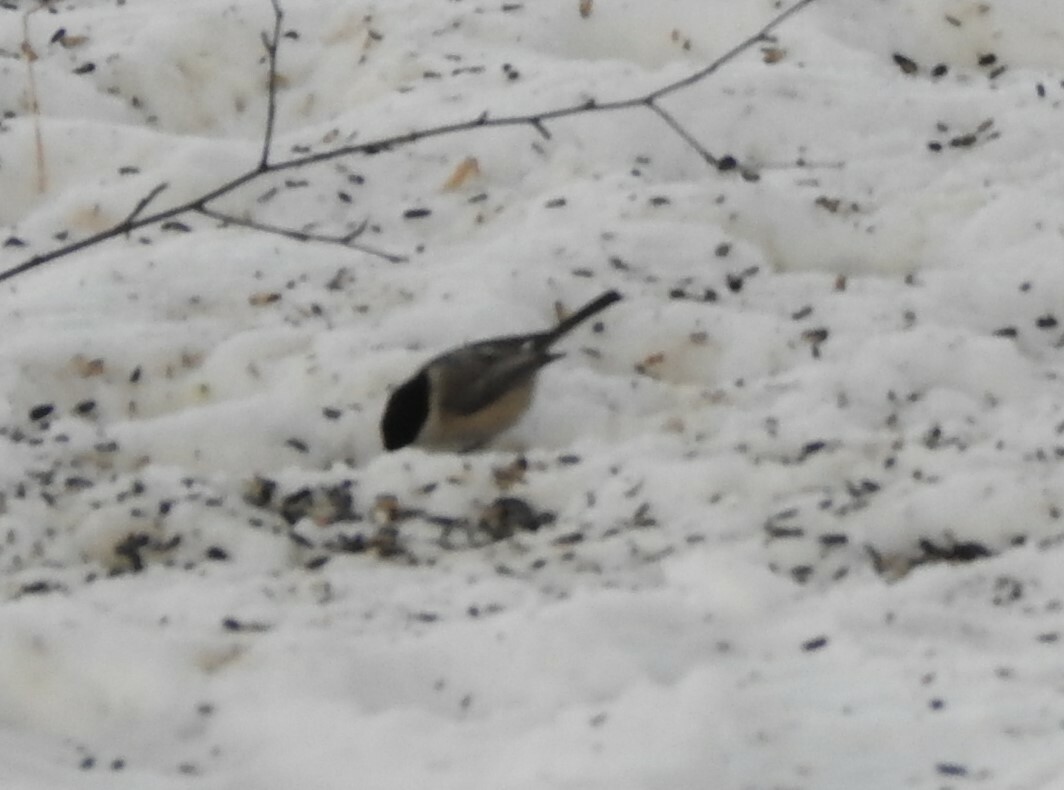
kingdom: Animalia
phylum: Chordata
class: Aves
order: Passeriformes
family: Paridae
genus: Poecile
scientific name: Poecile montanus
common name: Willow tit
